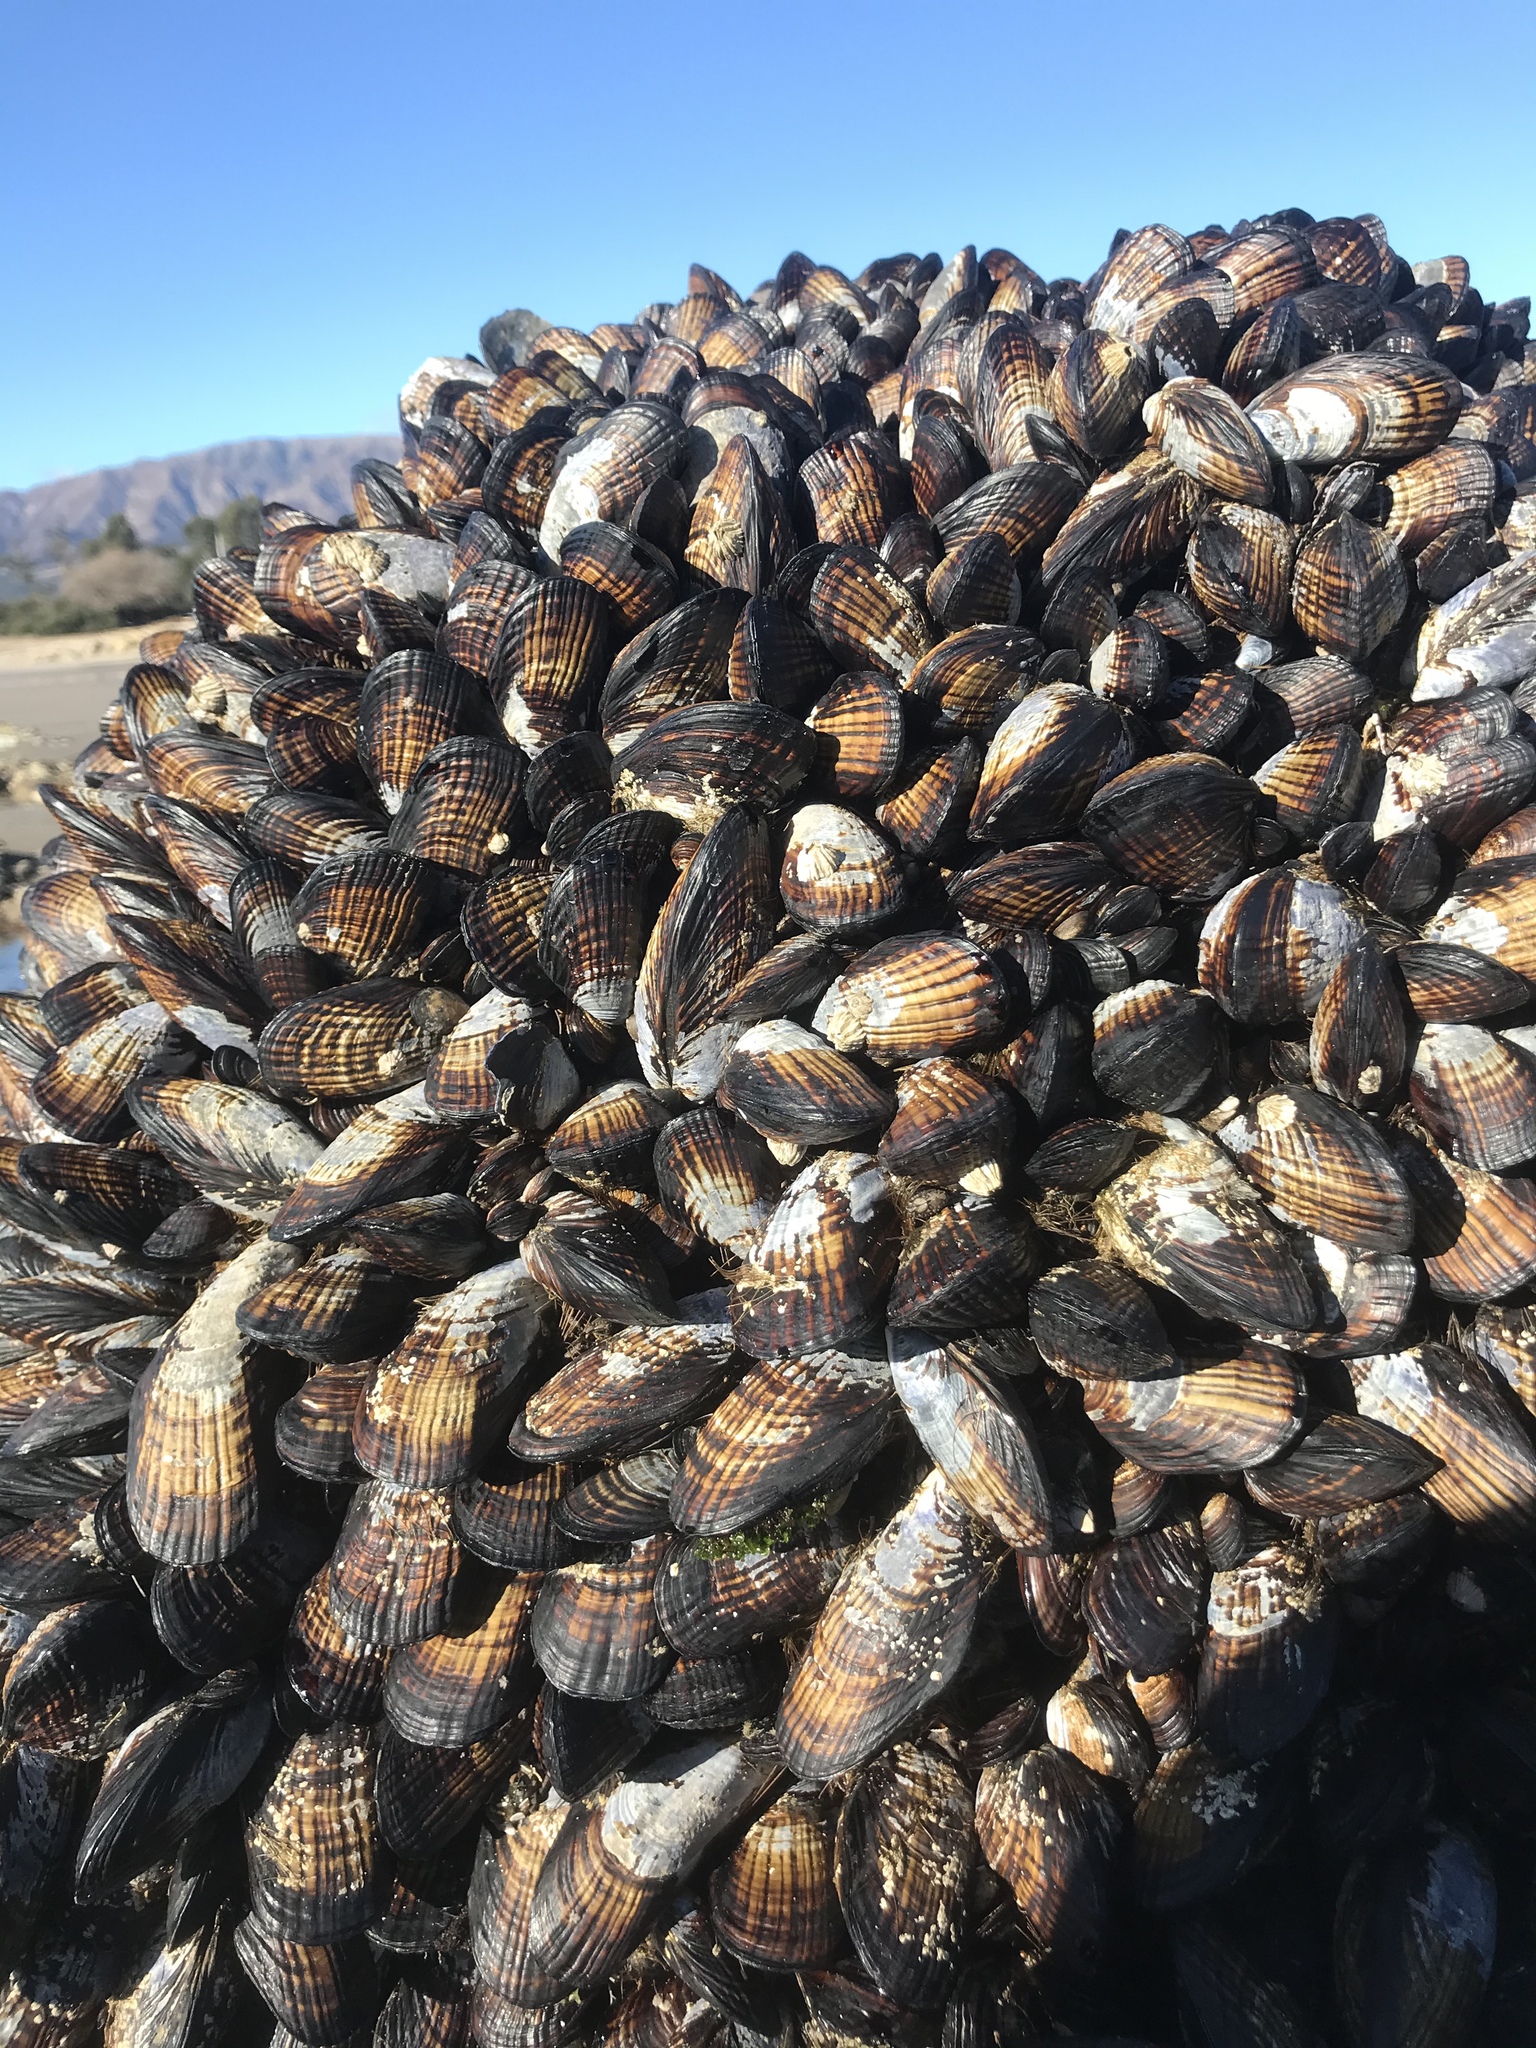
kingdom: Animalia
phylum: Mollusca
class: Bivalvia
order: Mytilida
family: Mytilidae
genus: Mytilus
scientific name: Mytilus californianus
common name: California mussel
